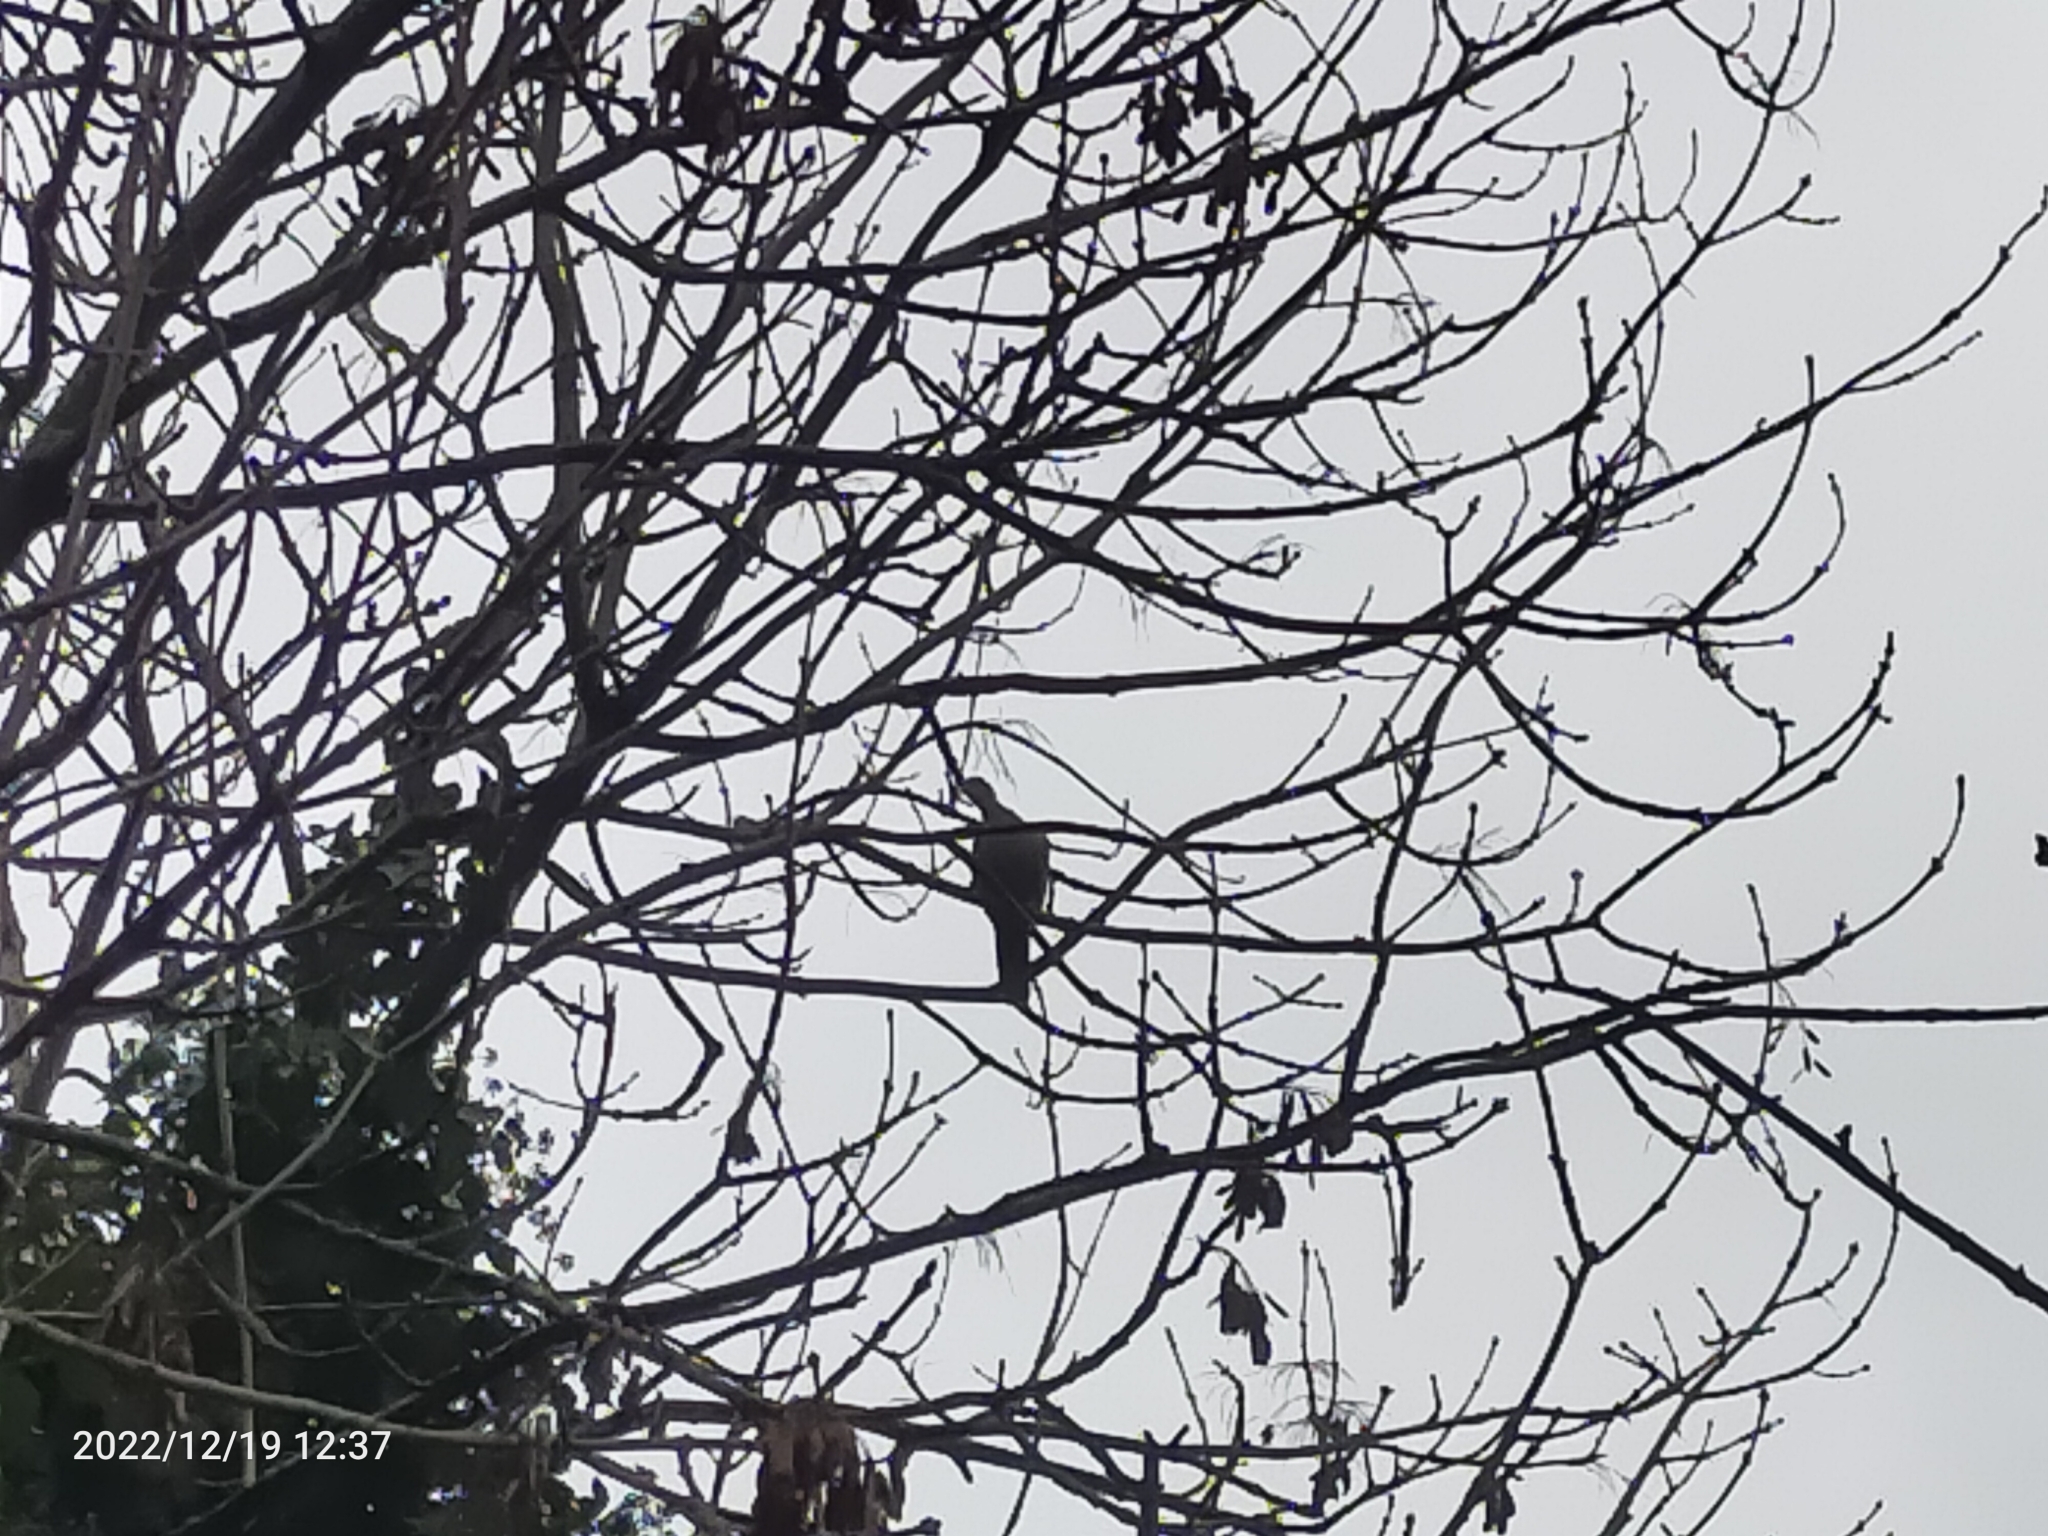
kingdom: Animalia
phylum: Chordata
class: Aves
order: Columbiformes
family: Columbidae
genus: Columba
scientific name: Columba palumbus
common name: Common wood pigeon
